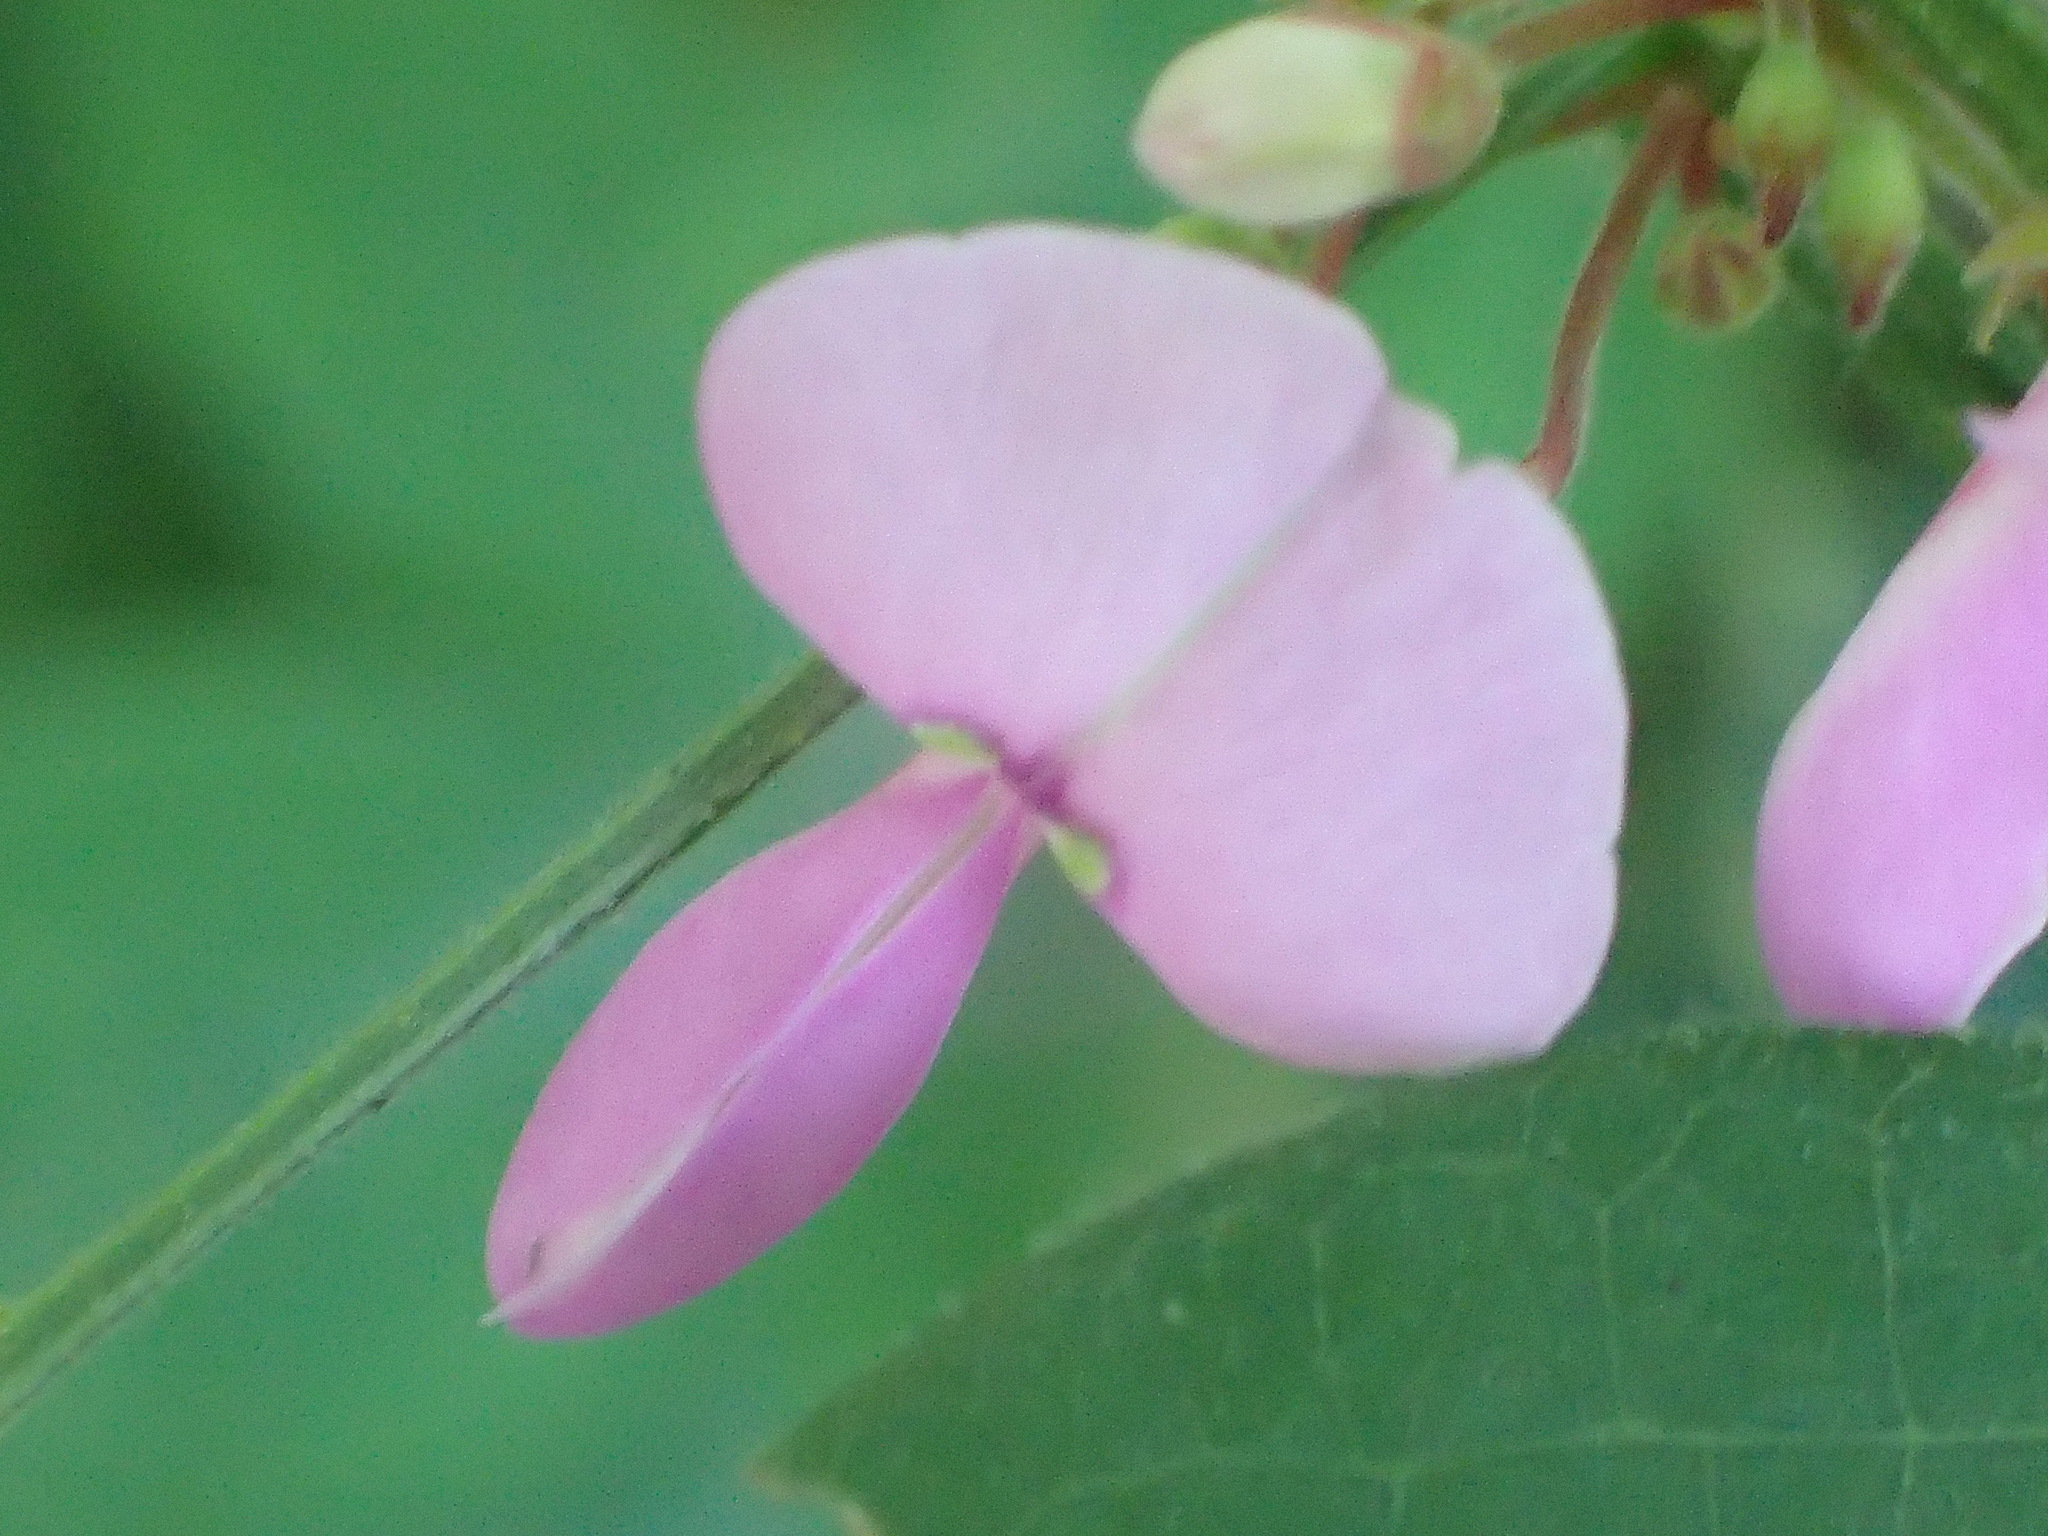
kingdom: Plantae
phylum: Tracheophyta
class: Magnoliopsida
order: Fabales
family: Fabaceae
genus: Desmodium
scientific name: Desmodium
